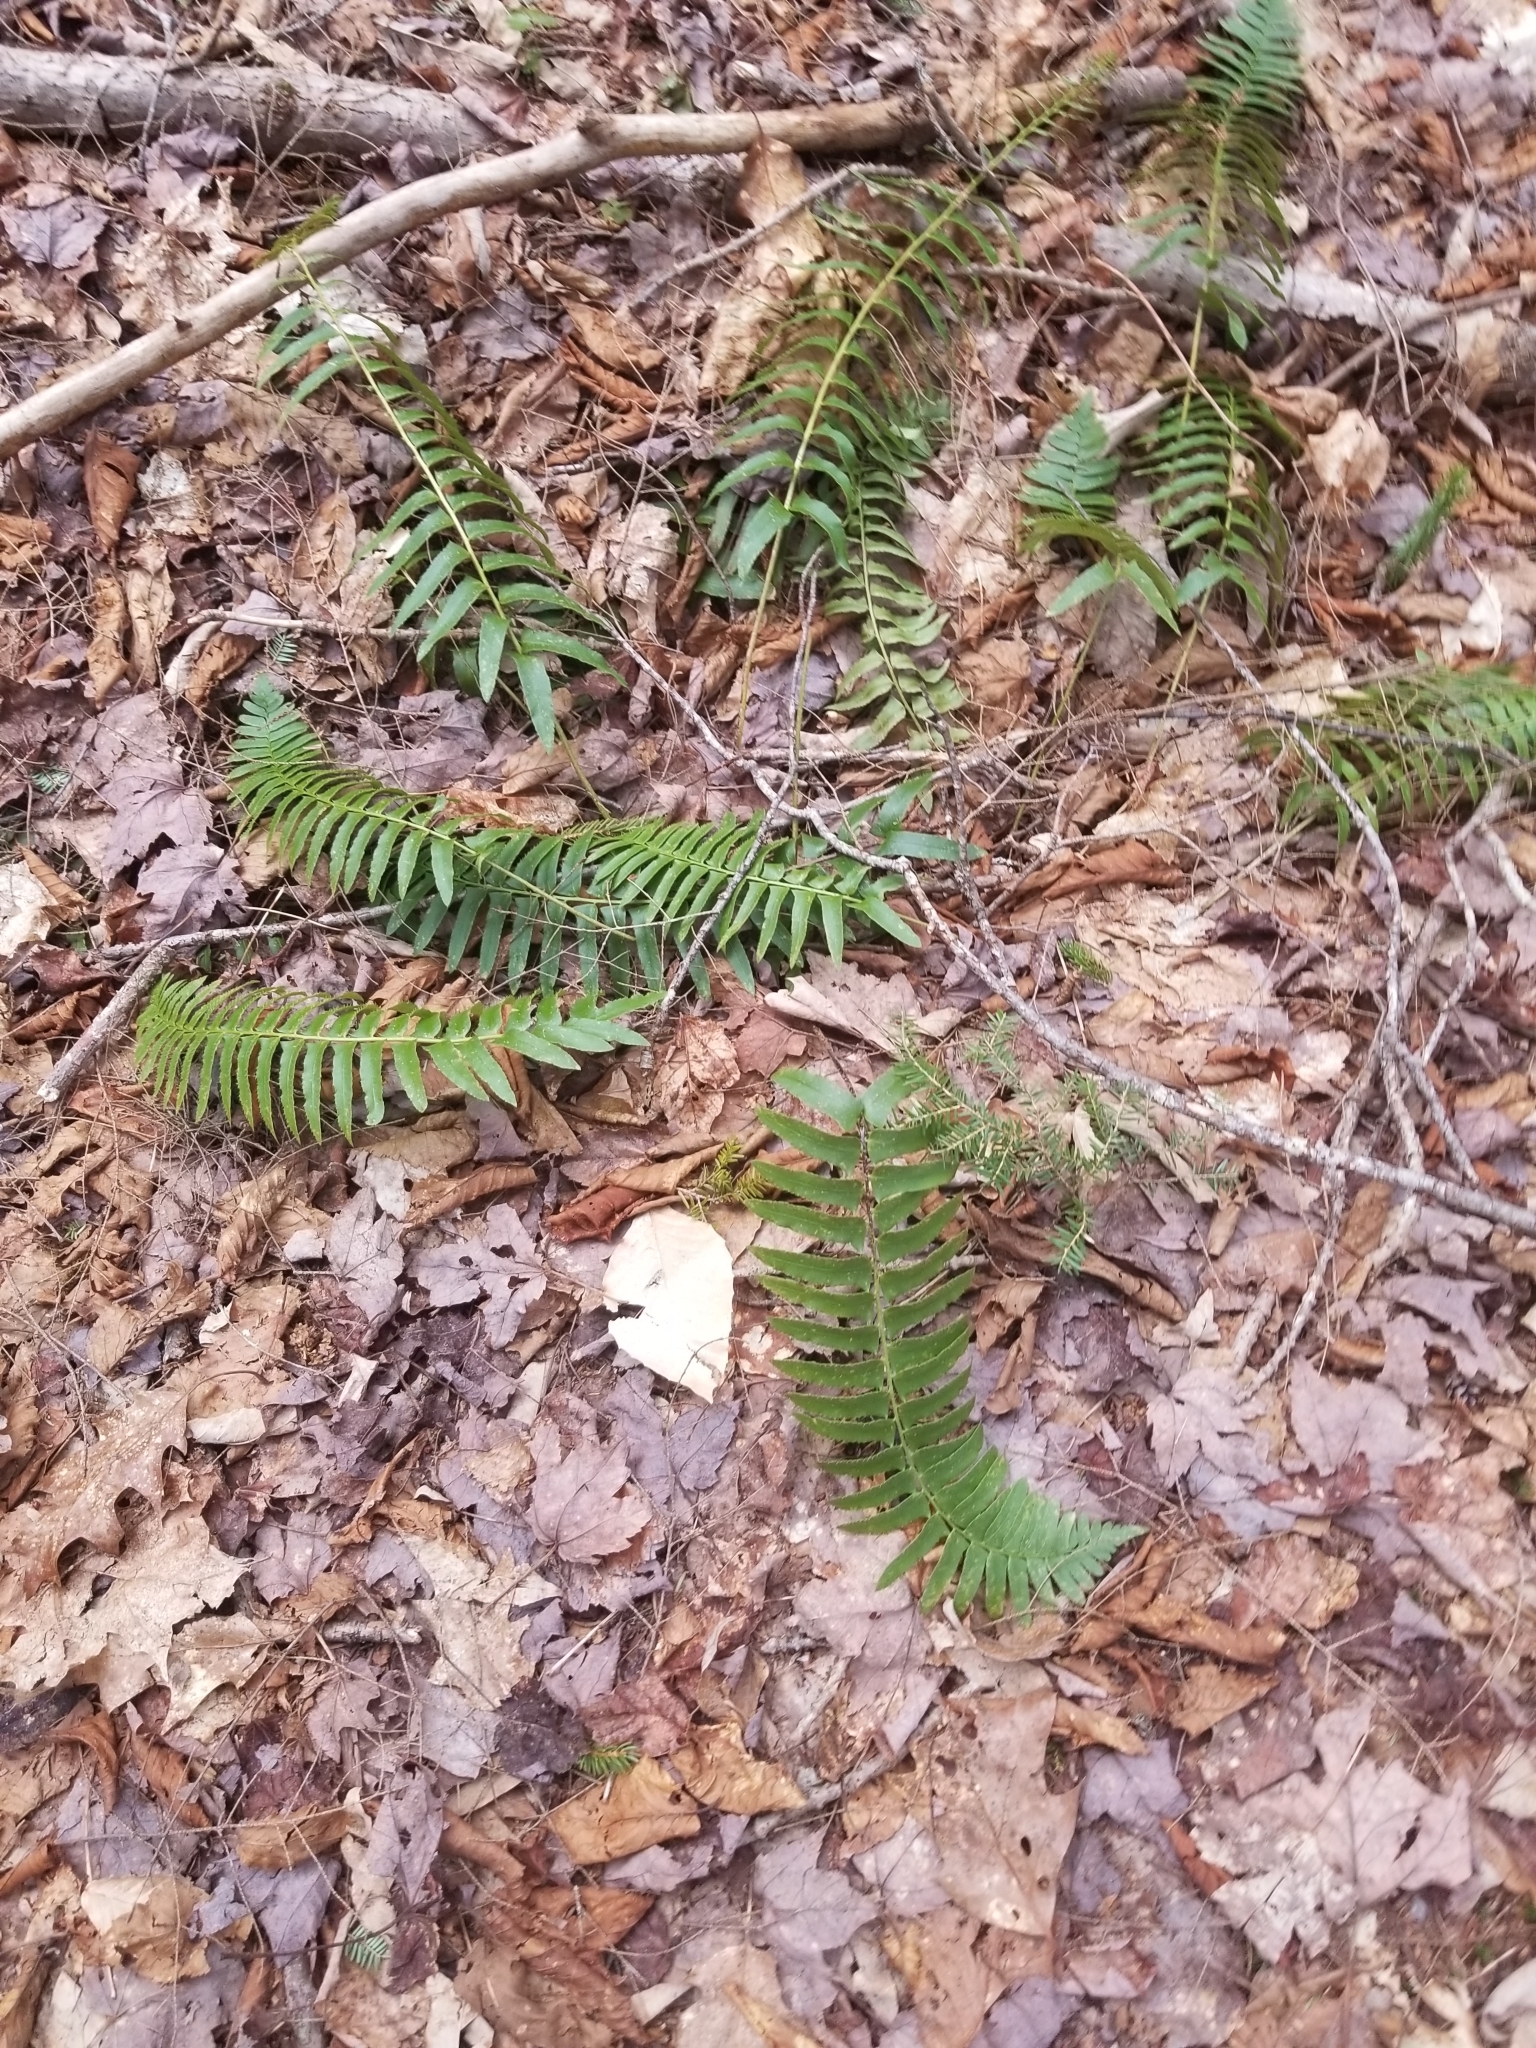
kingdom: Plantae
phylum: Tracheophyta
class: Polypodiopsida
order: Polypodiales
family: Dryopteridaceae
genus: Polystichum
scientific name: Polystichum acrostichoides
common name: Christmas fern
